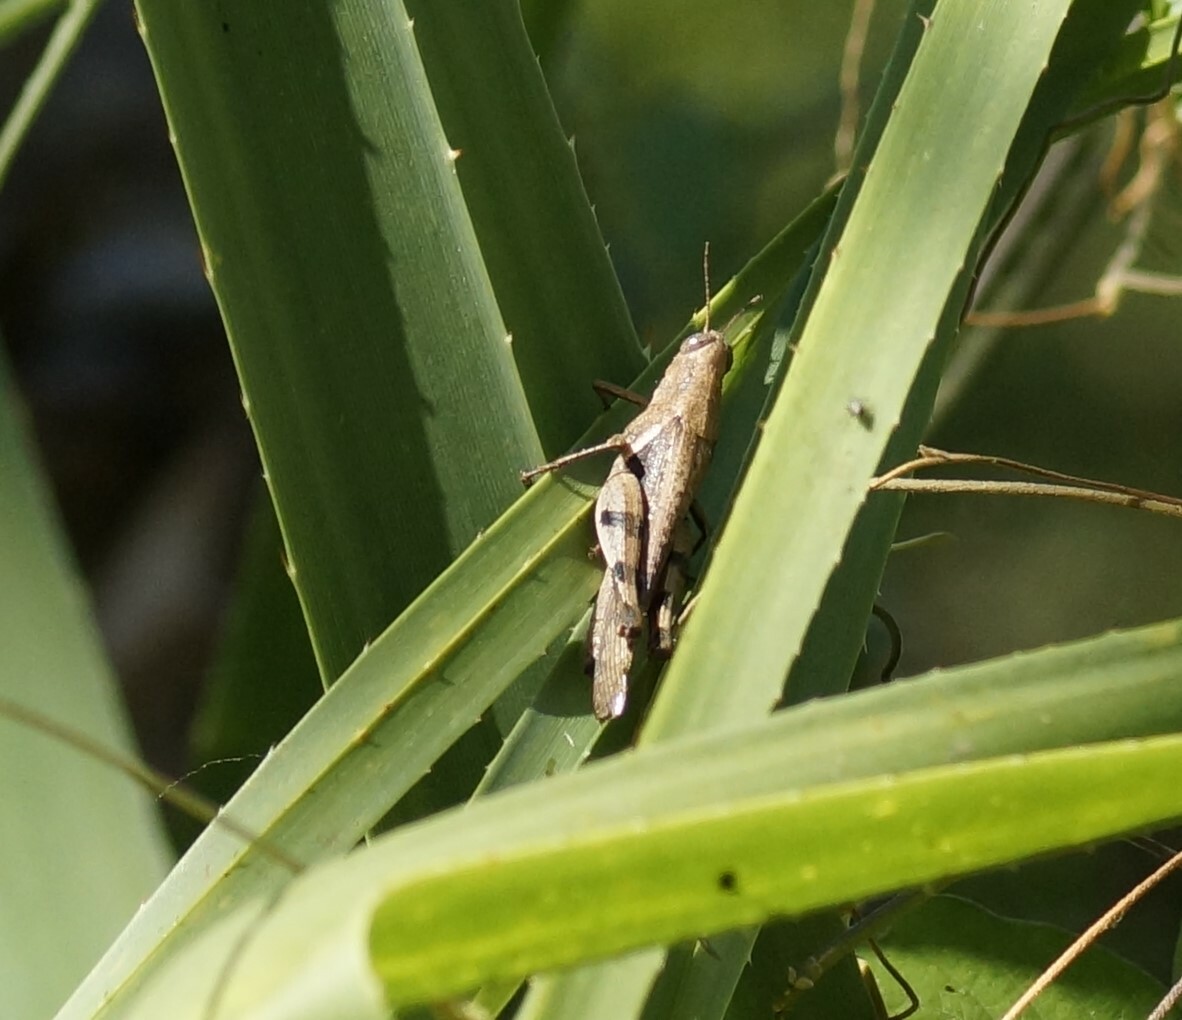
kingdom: Animalia
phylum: Arthropoda
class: Insecta
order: Orthoptera
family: Acrididae
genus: Stenocatantops
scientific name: Stenocatantops angustifrons
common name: Common tropical sharptail
